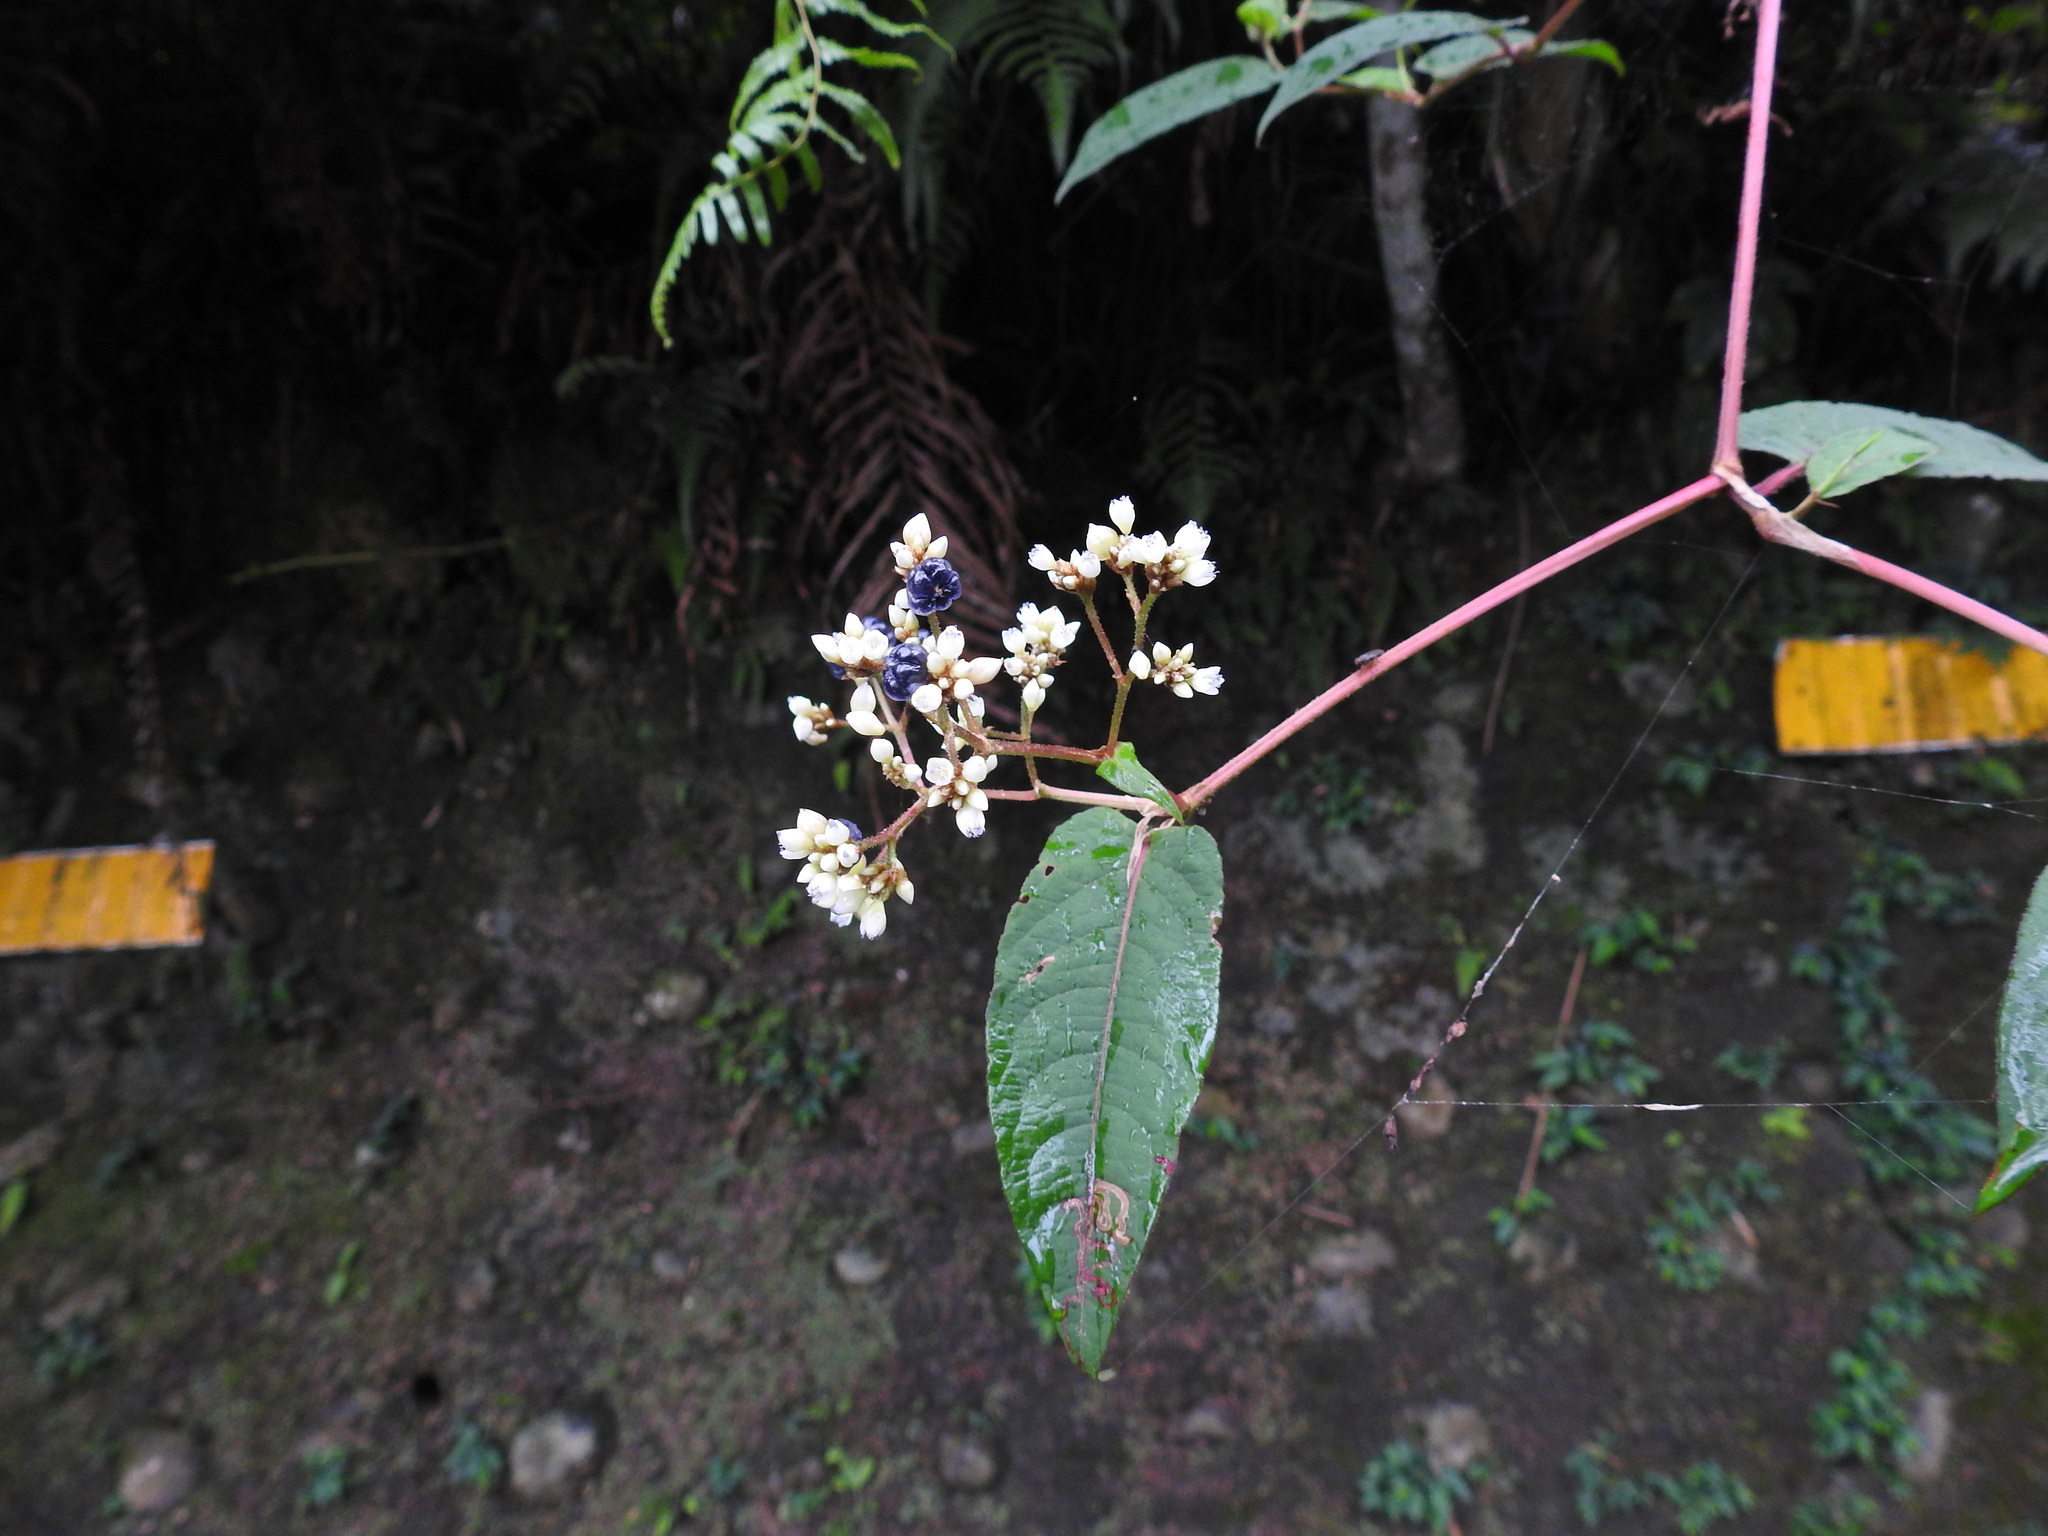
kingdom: Plantae
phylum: Tracheophyta
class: Magnoliopsida
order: Caryophyllales
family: Polygonaceae
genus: Persicaria
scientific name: Persicaria chinensis
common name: Chinese knotweed
